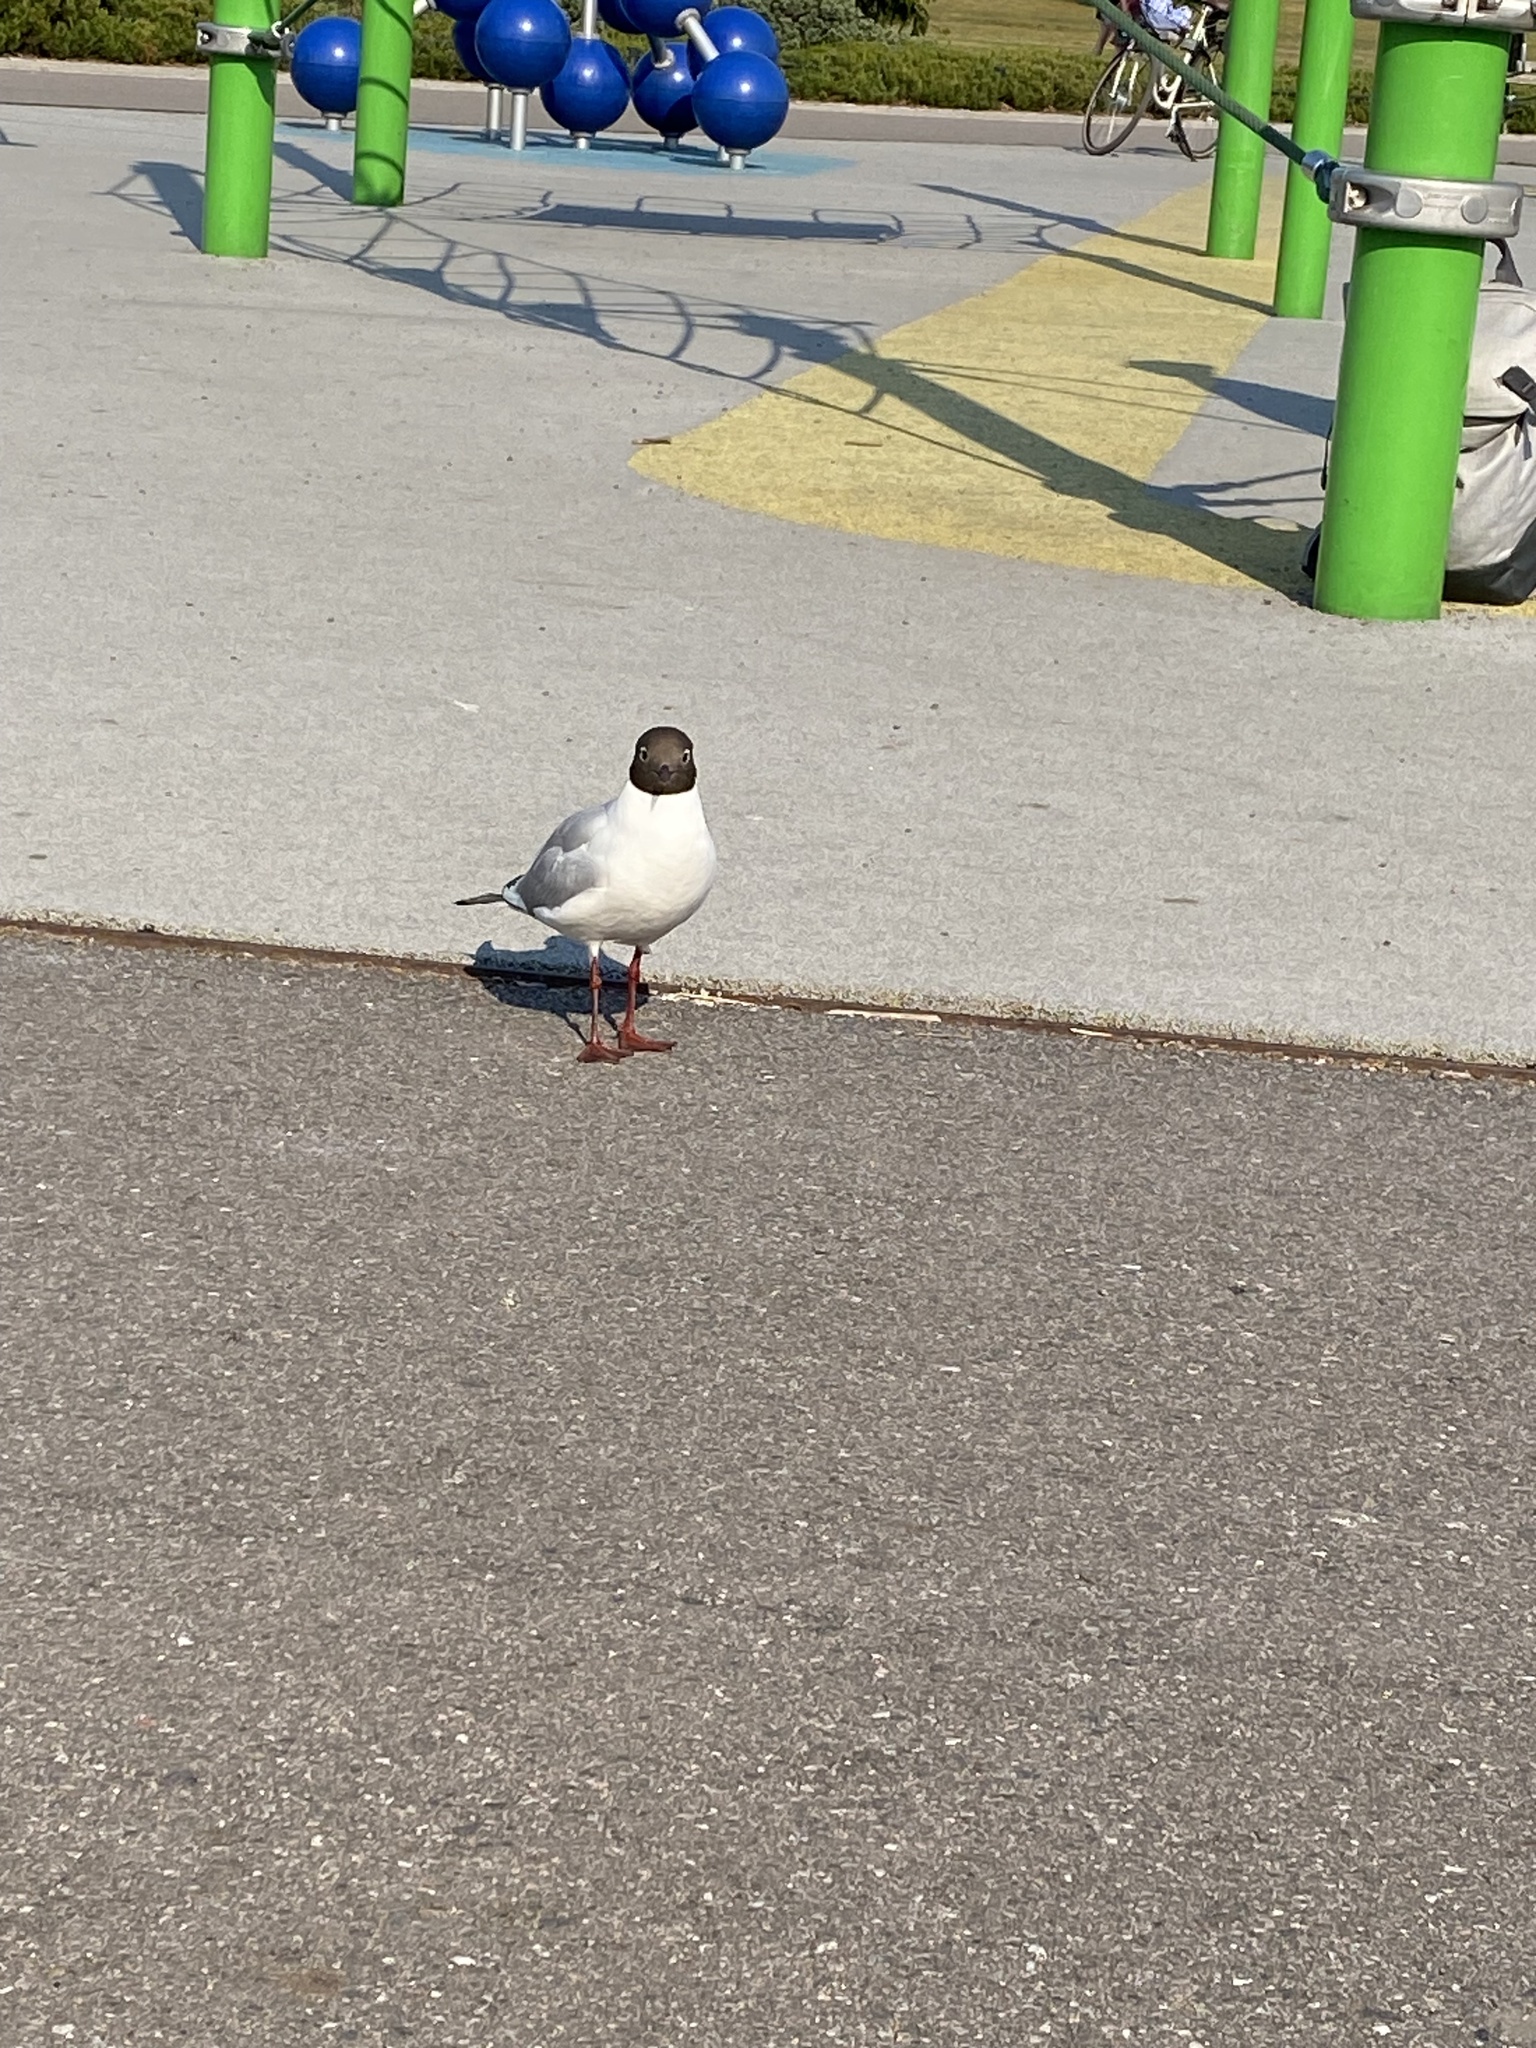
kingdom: Animalia
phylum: Chordata
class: Aves
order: Charadriiformes
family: Laridae
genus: Chroicocephalus
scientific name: Chroicocephalus ridibundus
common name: Black-headed gull
